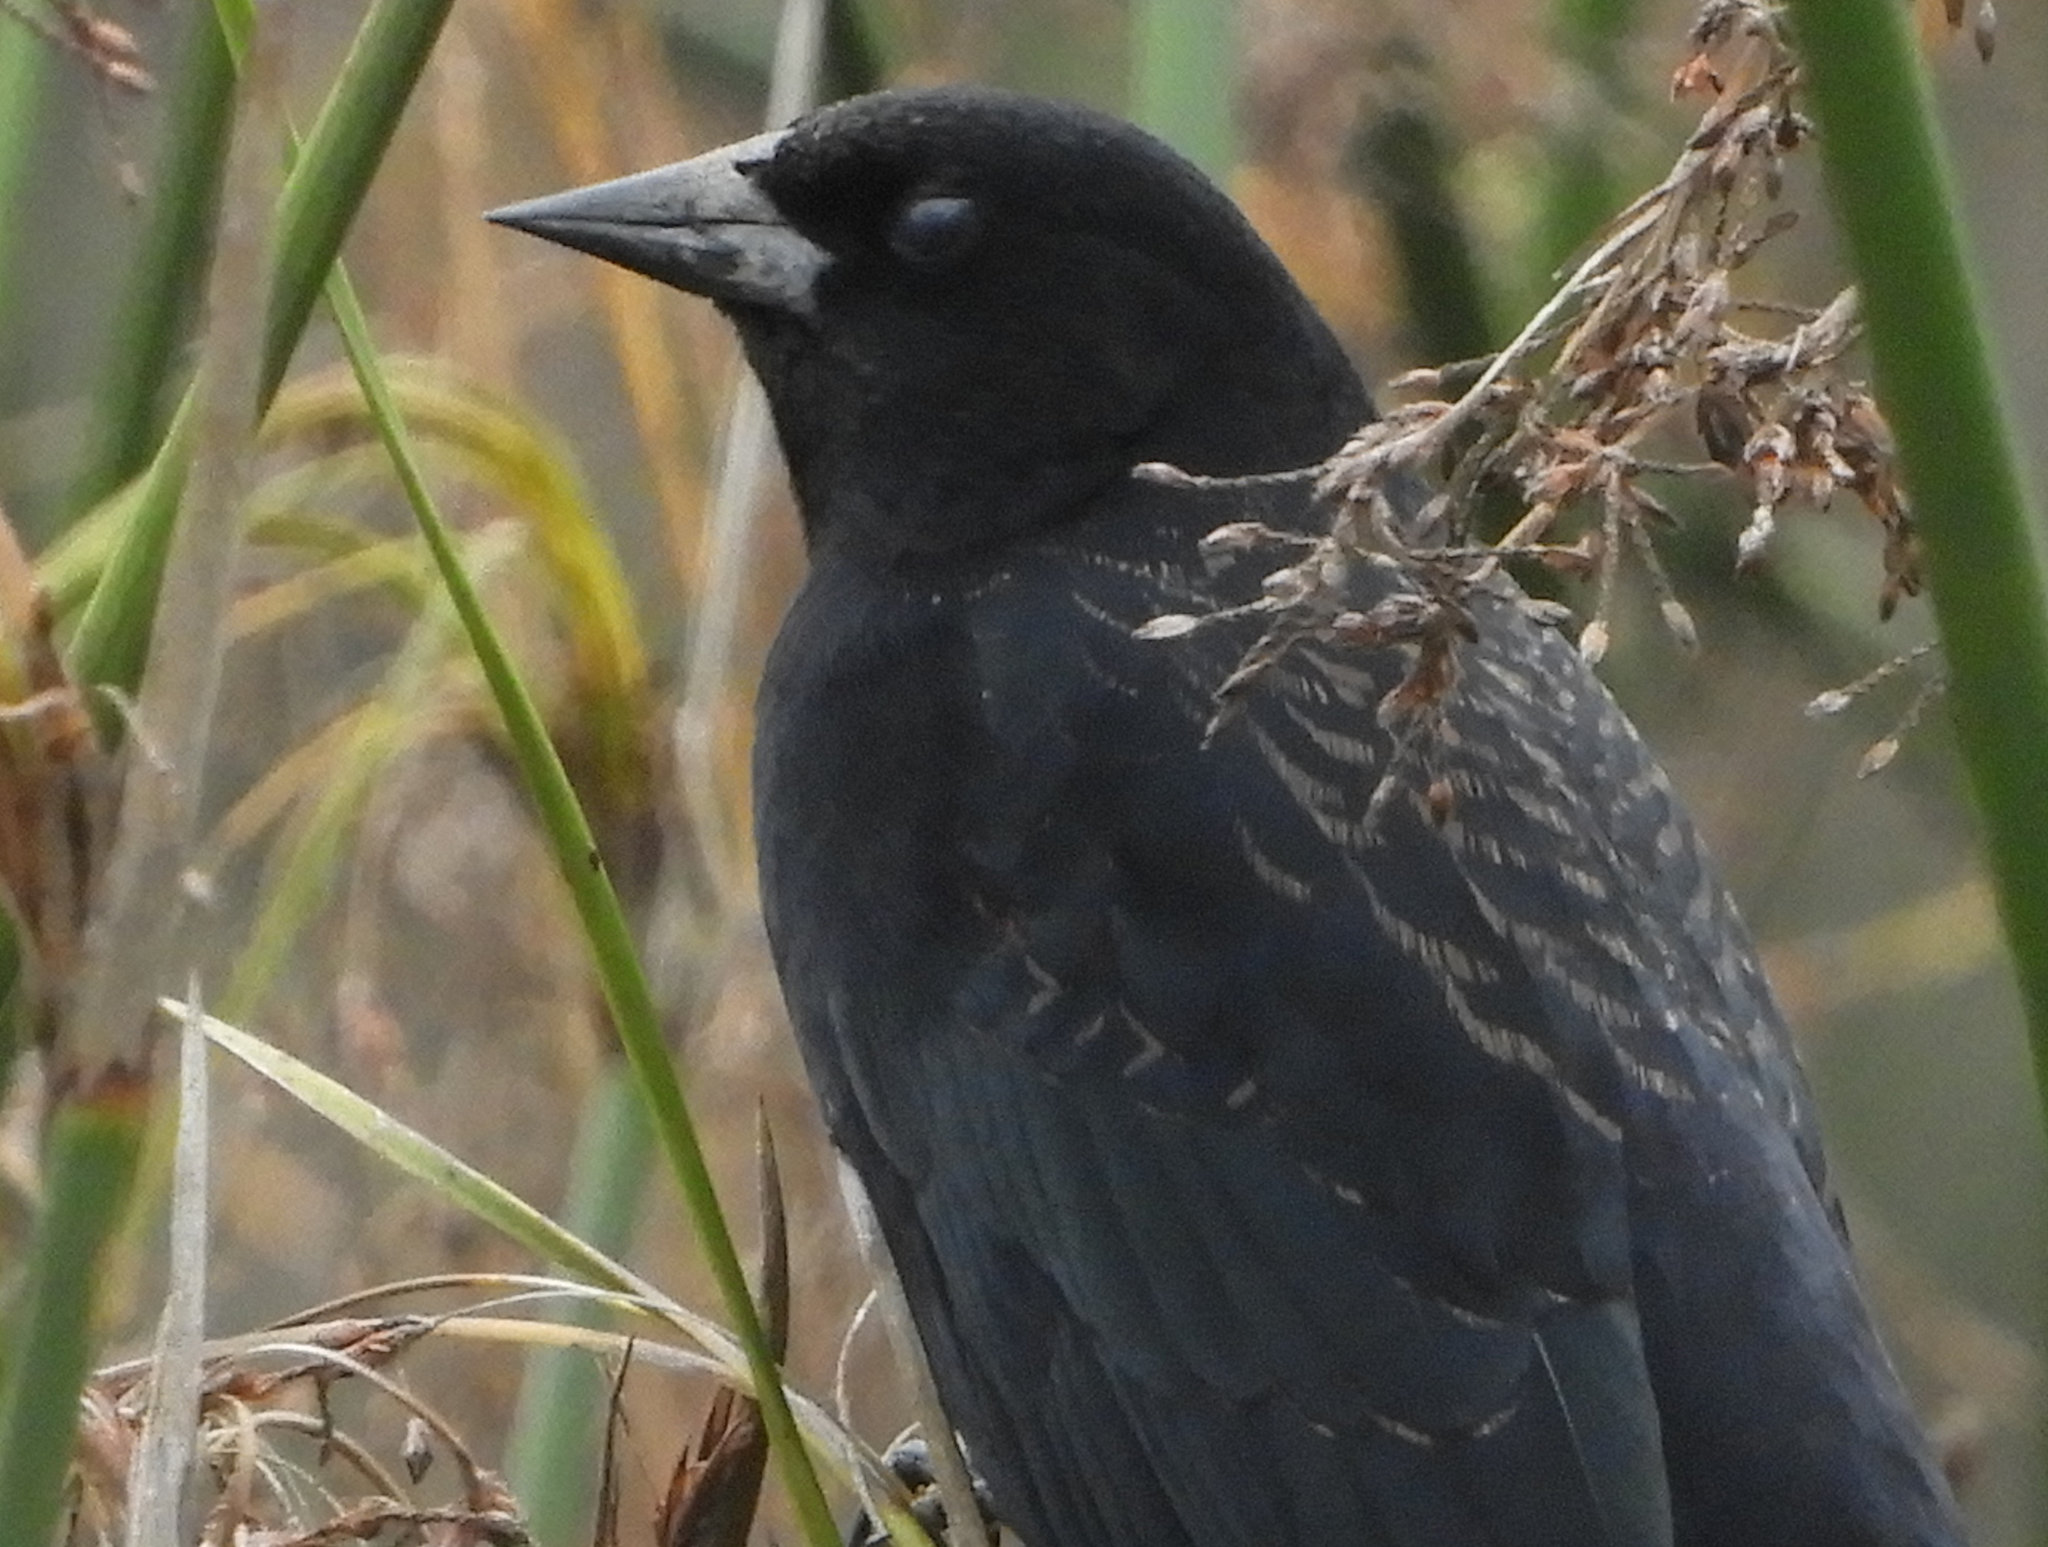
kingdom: Animalia
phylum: Chordata
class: Aves
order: Passeriformes
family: Icteridae
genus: Agelaius
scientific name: Agelaius phoeniceus
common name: Red-winged blackbird
